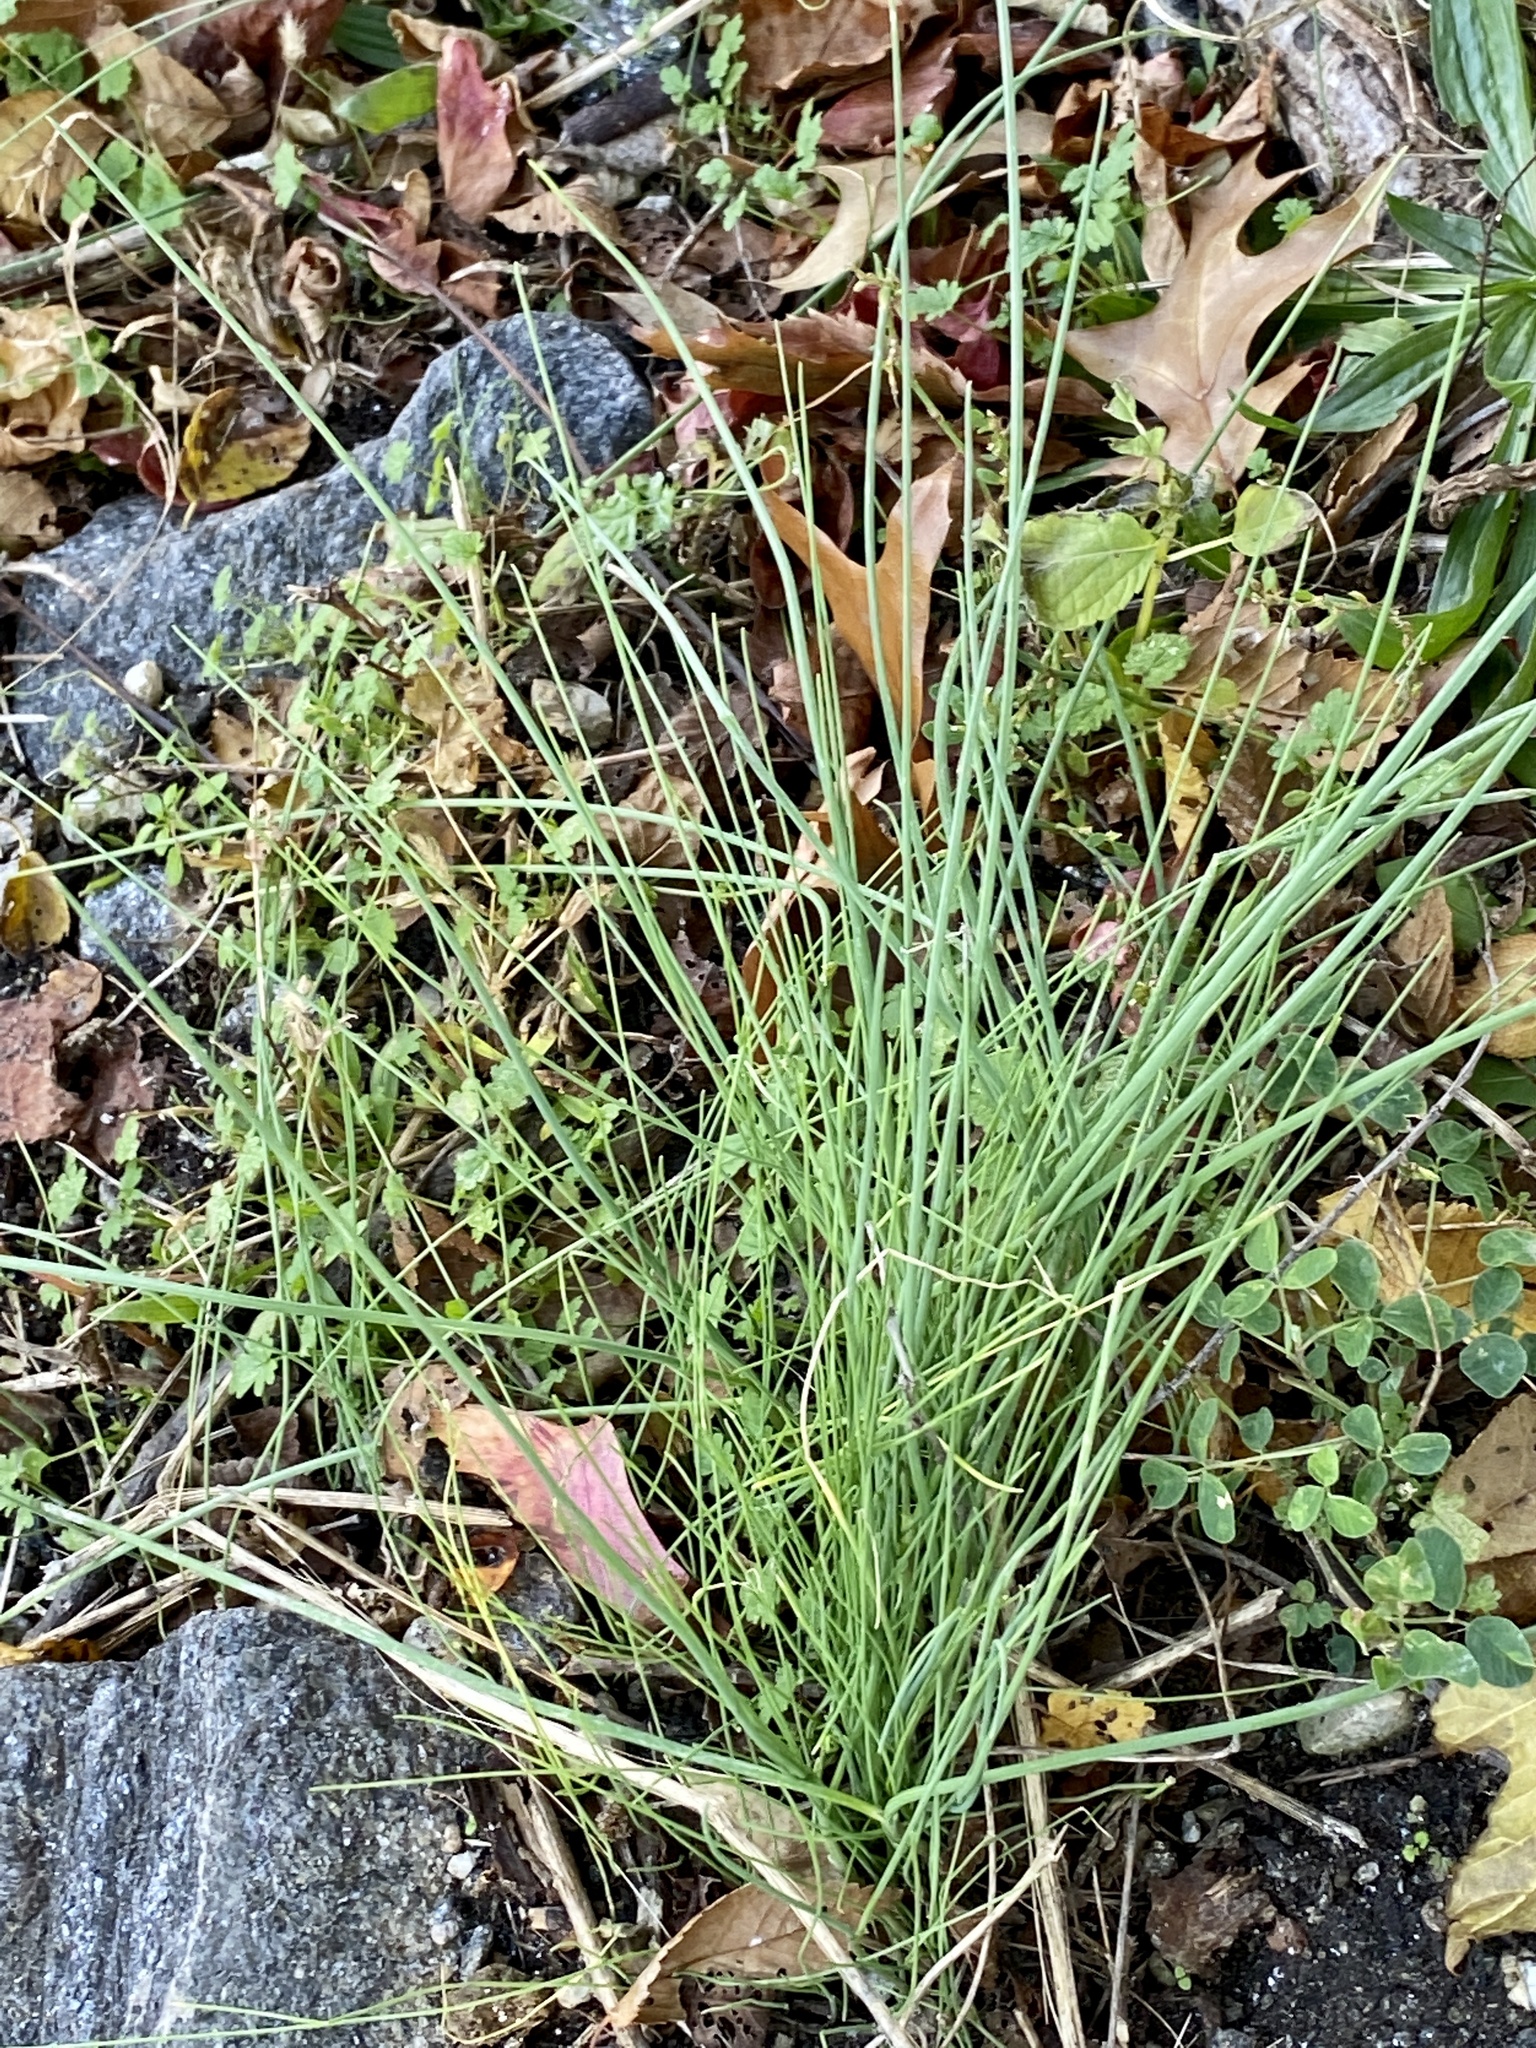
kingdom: Plantae
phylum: Tracheophyta
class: Liliopsida
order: Asparagales
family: Amaryllidaceae
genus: Allium
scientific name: Allium vineale
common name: Crow garlic
